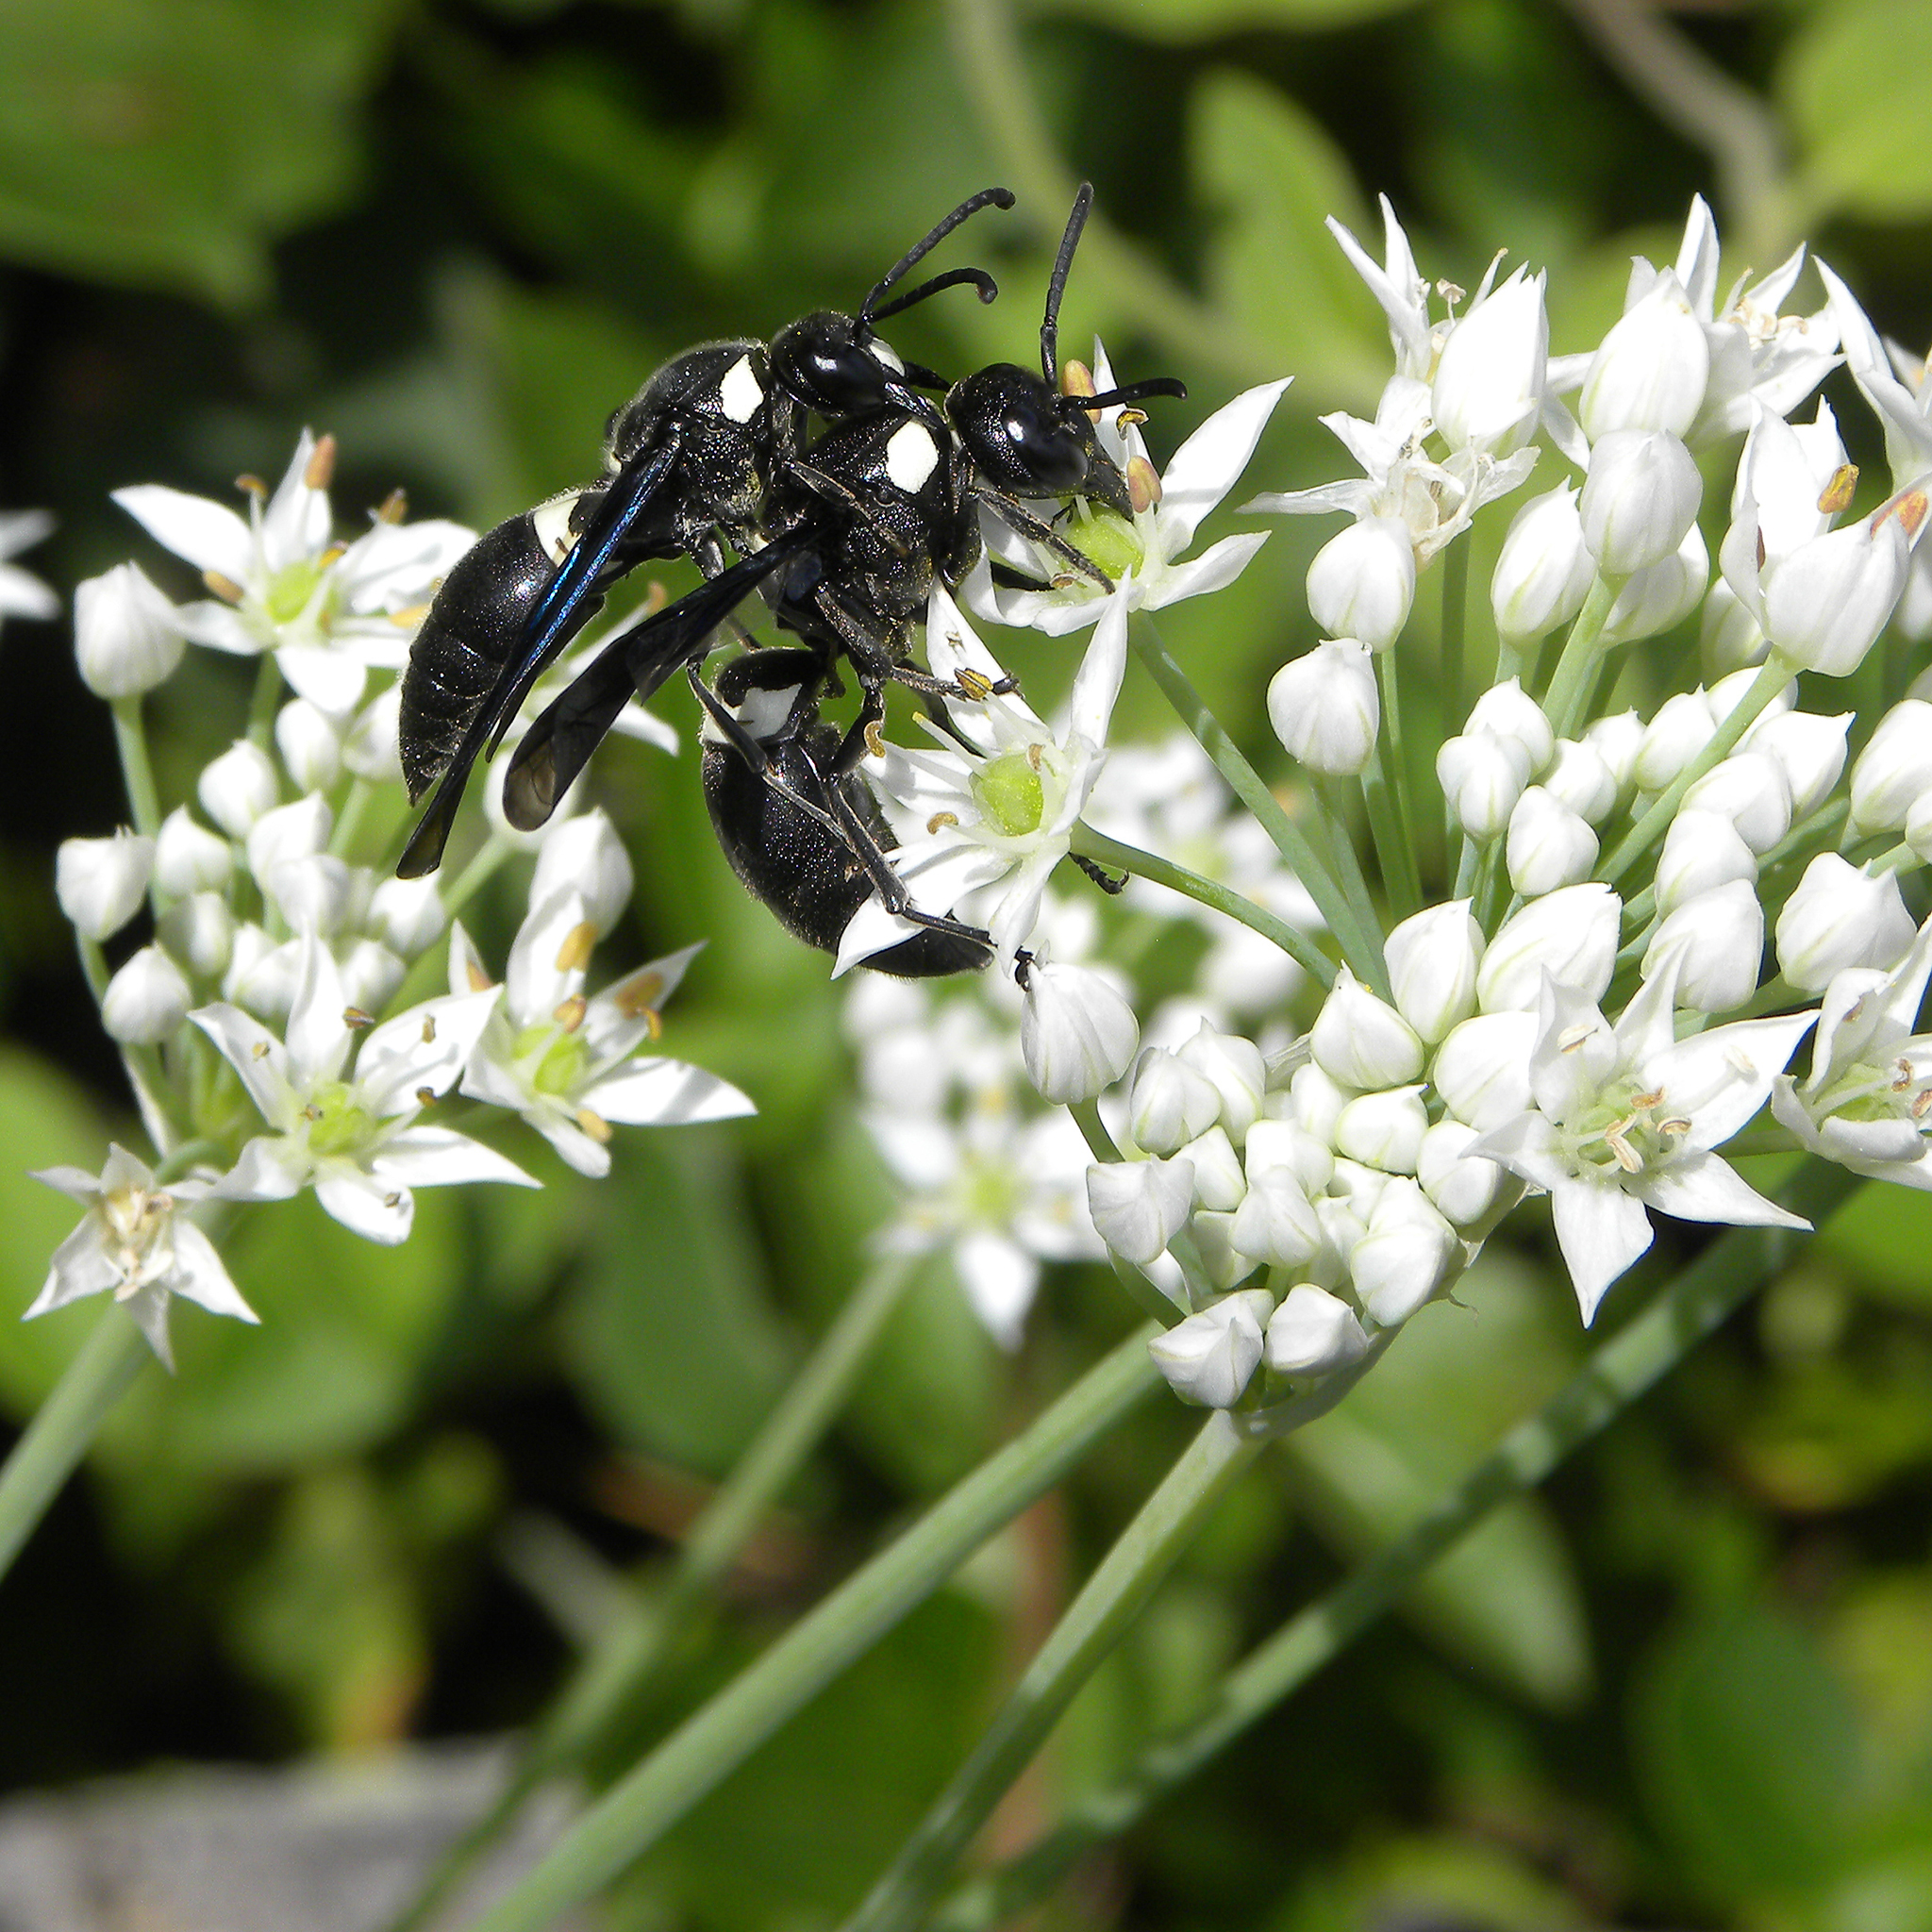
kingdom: Animalia
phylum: Arthropoda
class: Insecta
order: Hymenoptera
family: Eumenidae
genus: Monobia
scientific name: Monobia quadridens
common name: Four-toothed mason wasp
